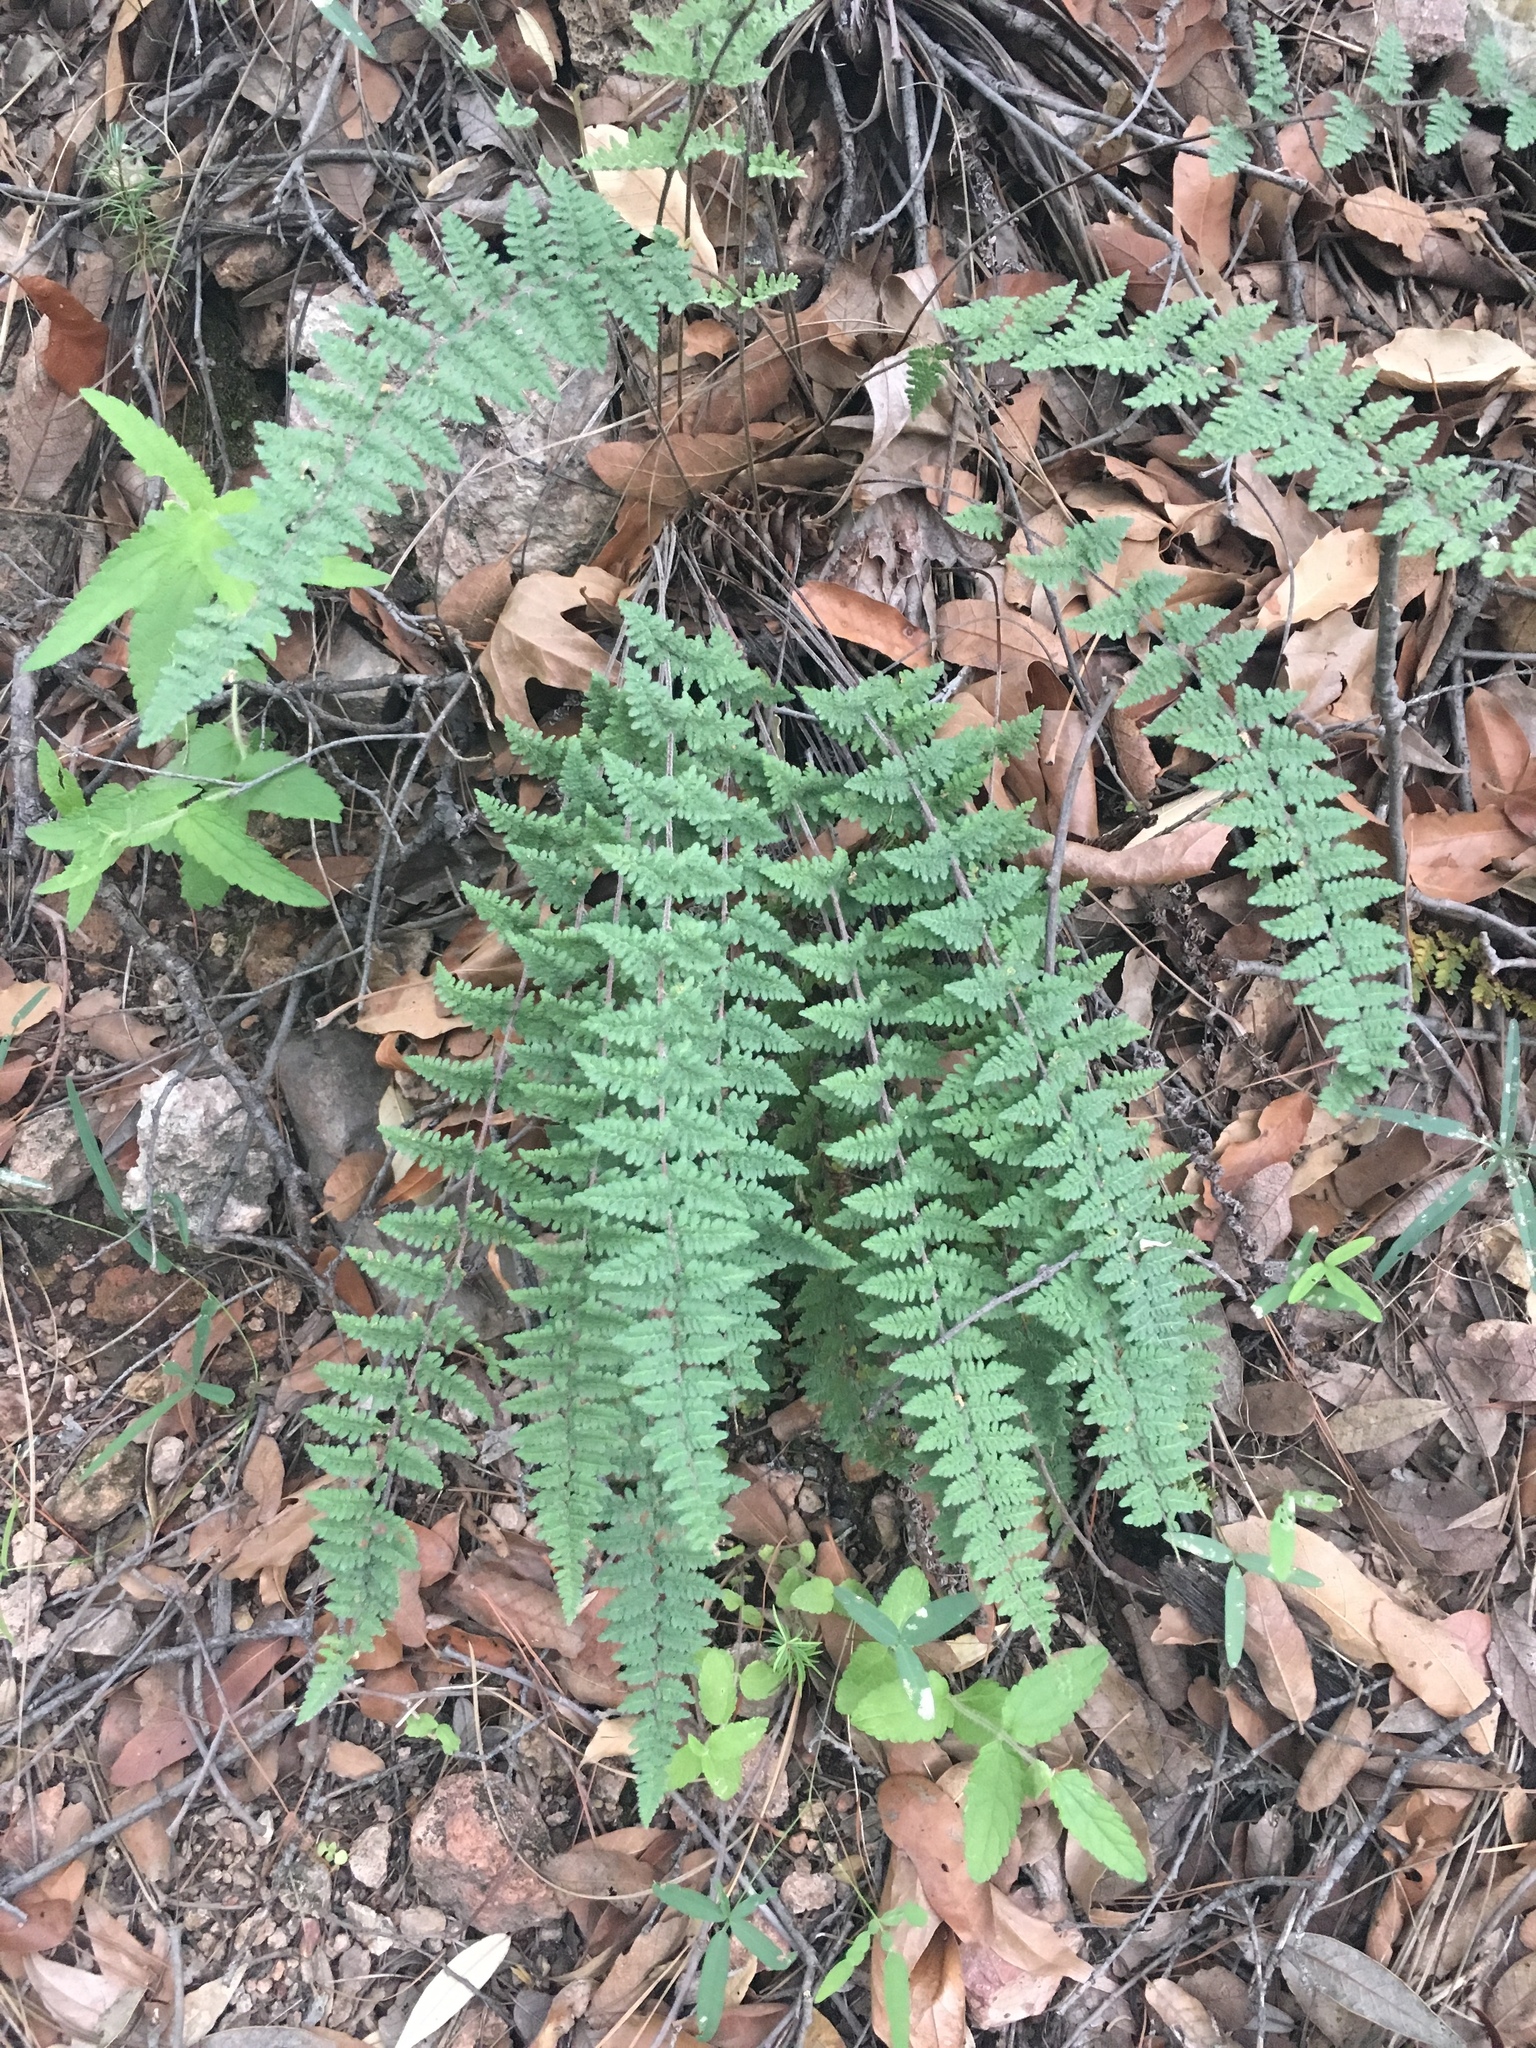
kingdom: Plantae
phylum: Tracheophyta
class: Polypodiopsida
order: Polypodiales
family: Pteridaceae
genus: Myriopteris
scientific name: Myriopteris tomentosa
